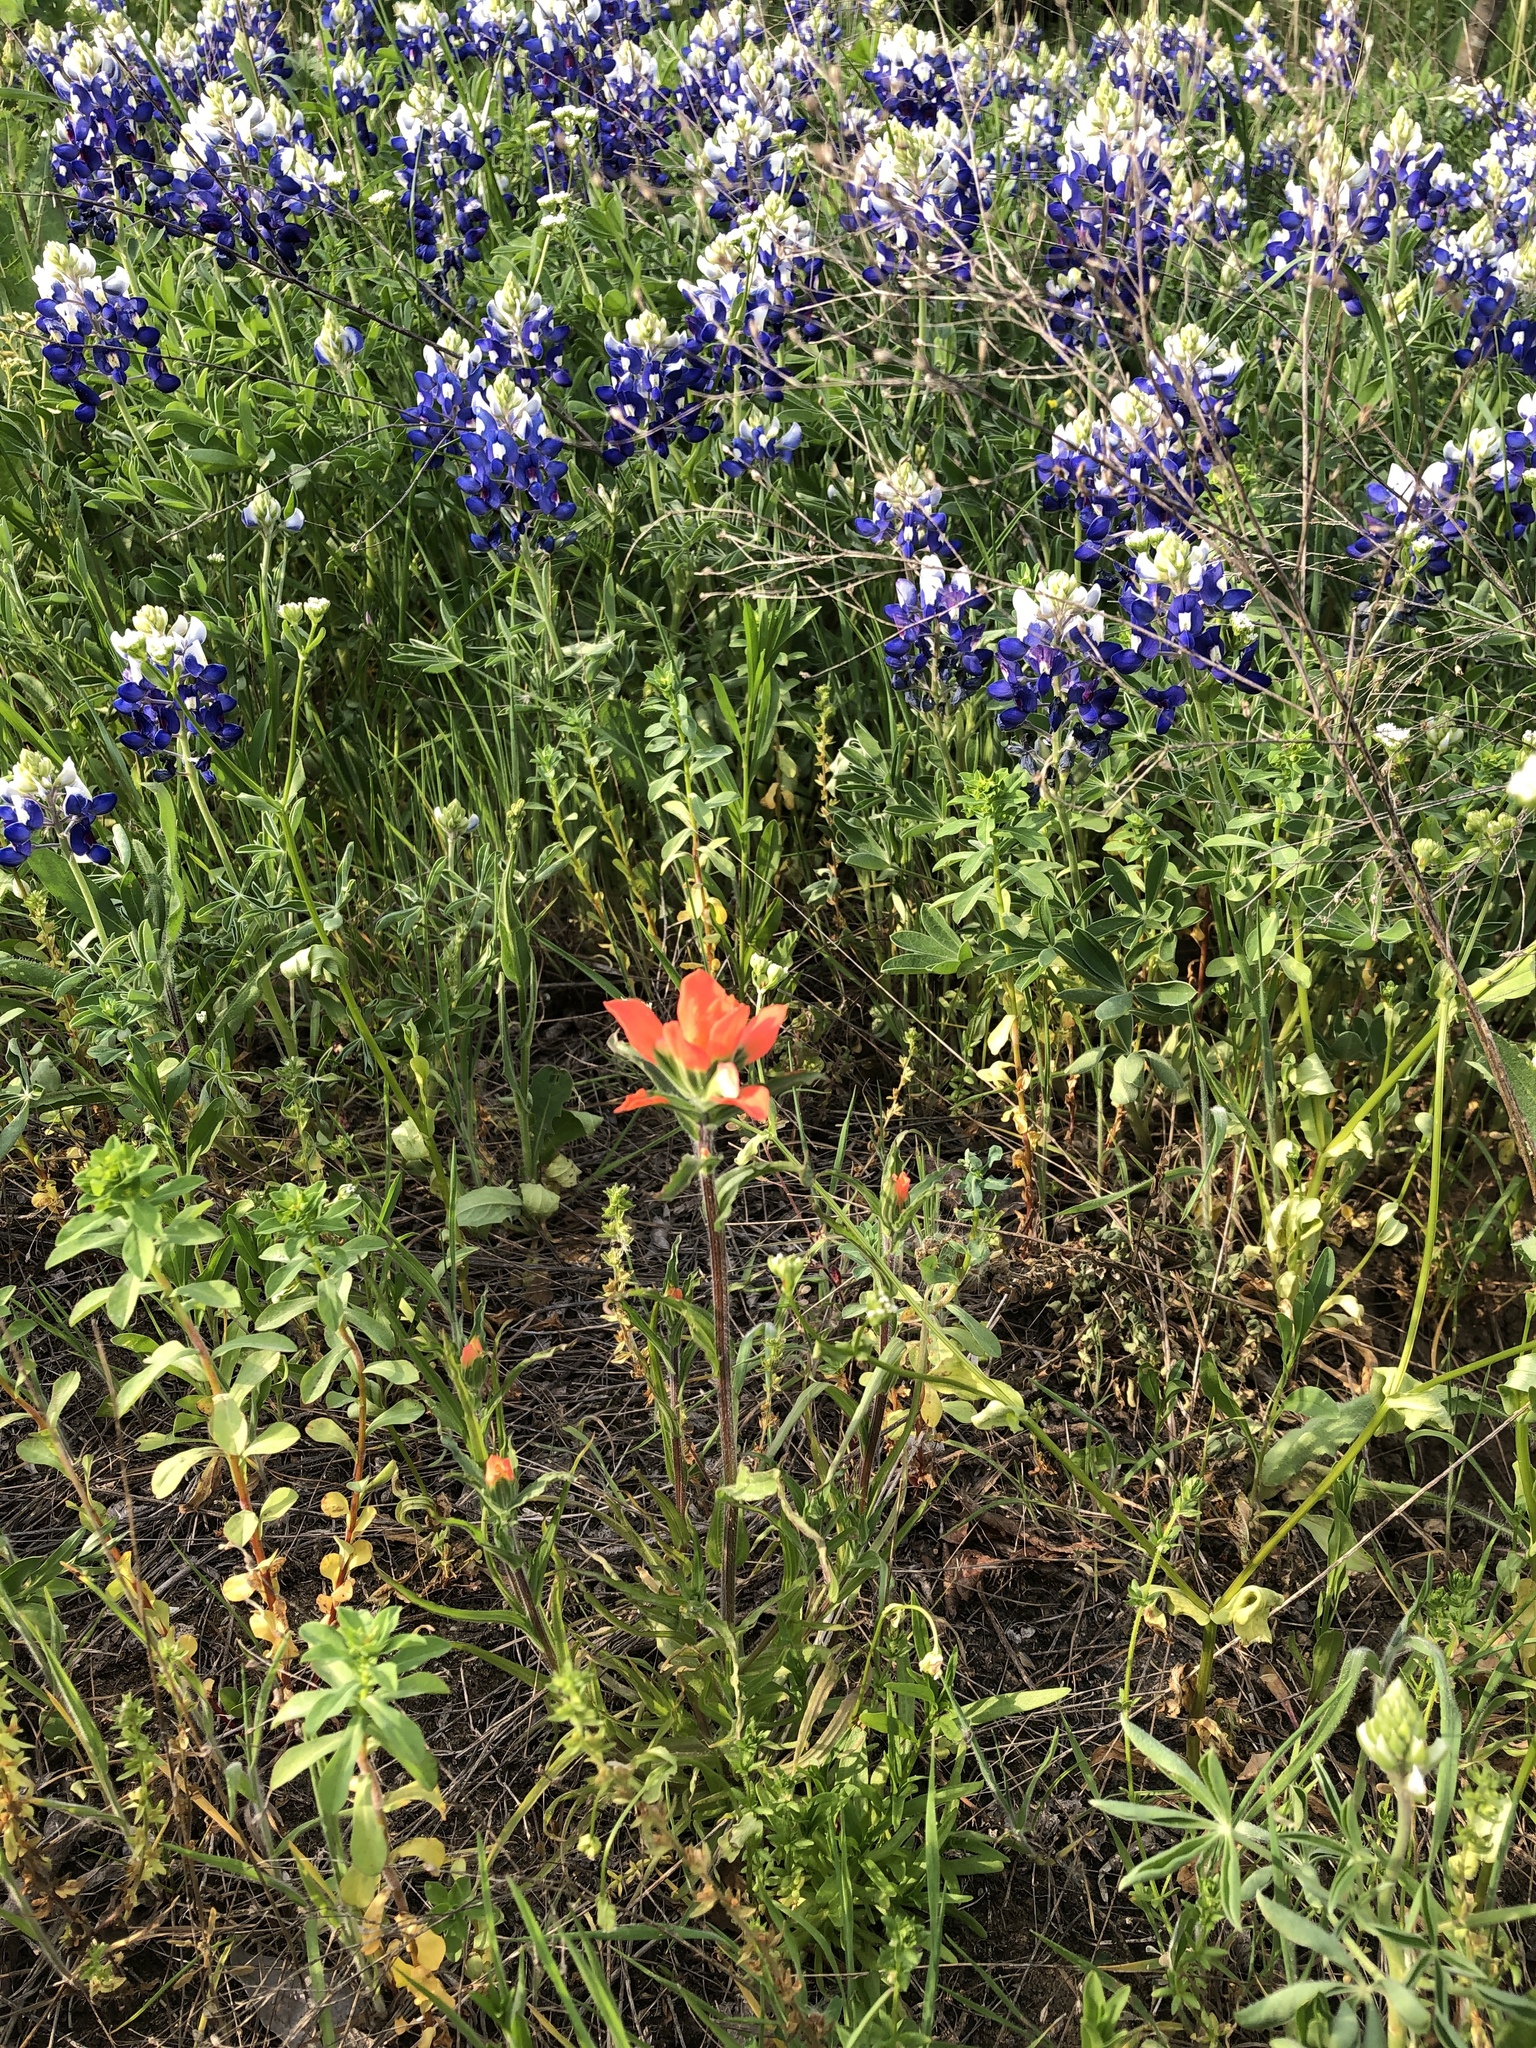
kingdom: Plantae
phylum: Tracheophyta
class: Magnoliopsida
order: Lamiales
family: Orobanchaceae
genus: Castilleja
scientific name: Castilleja indivisa
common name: Texas paintbrush
